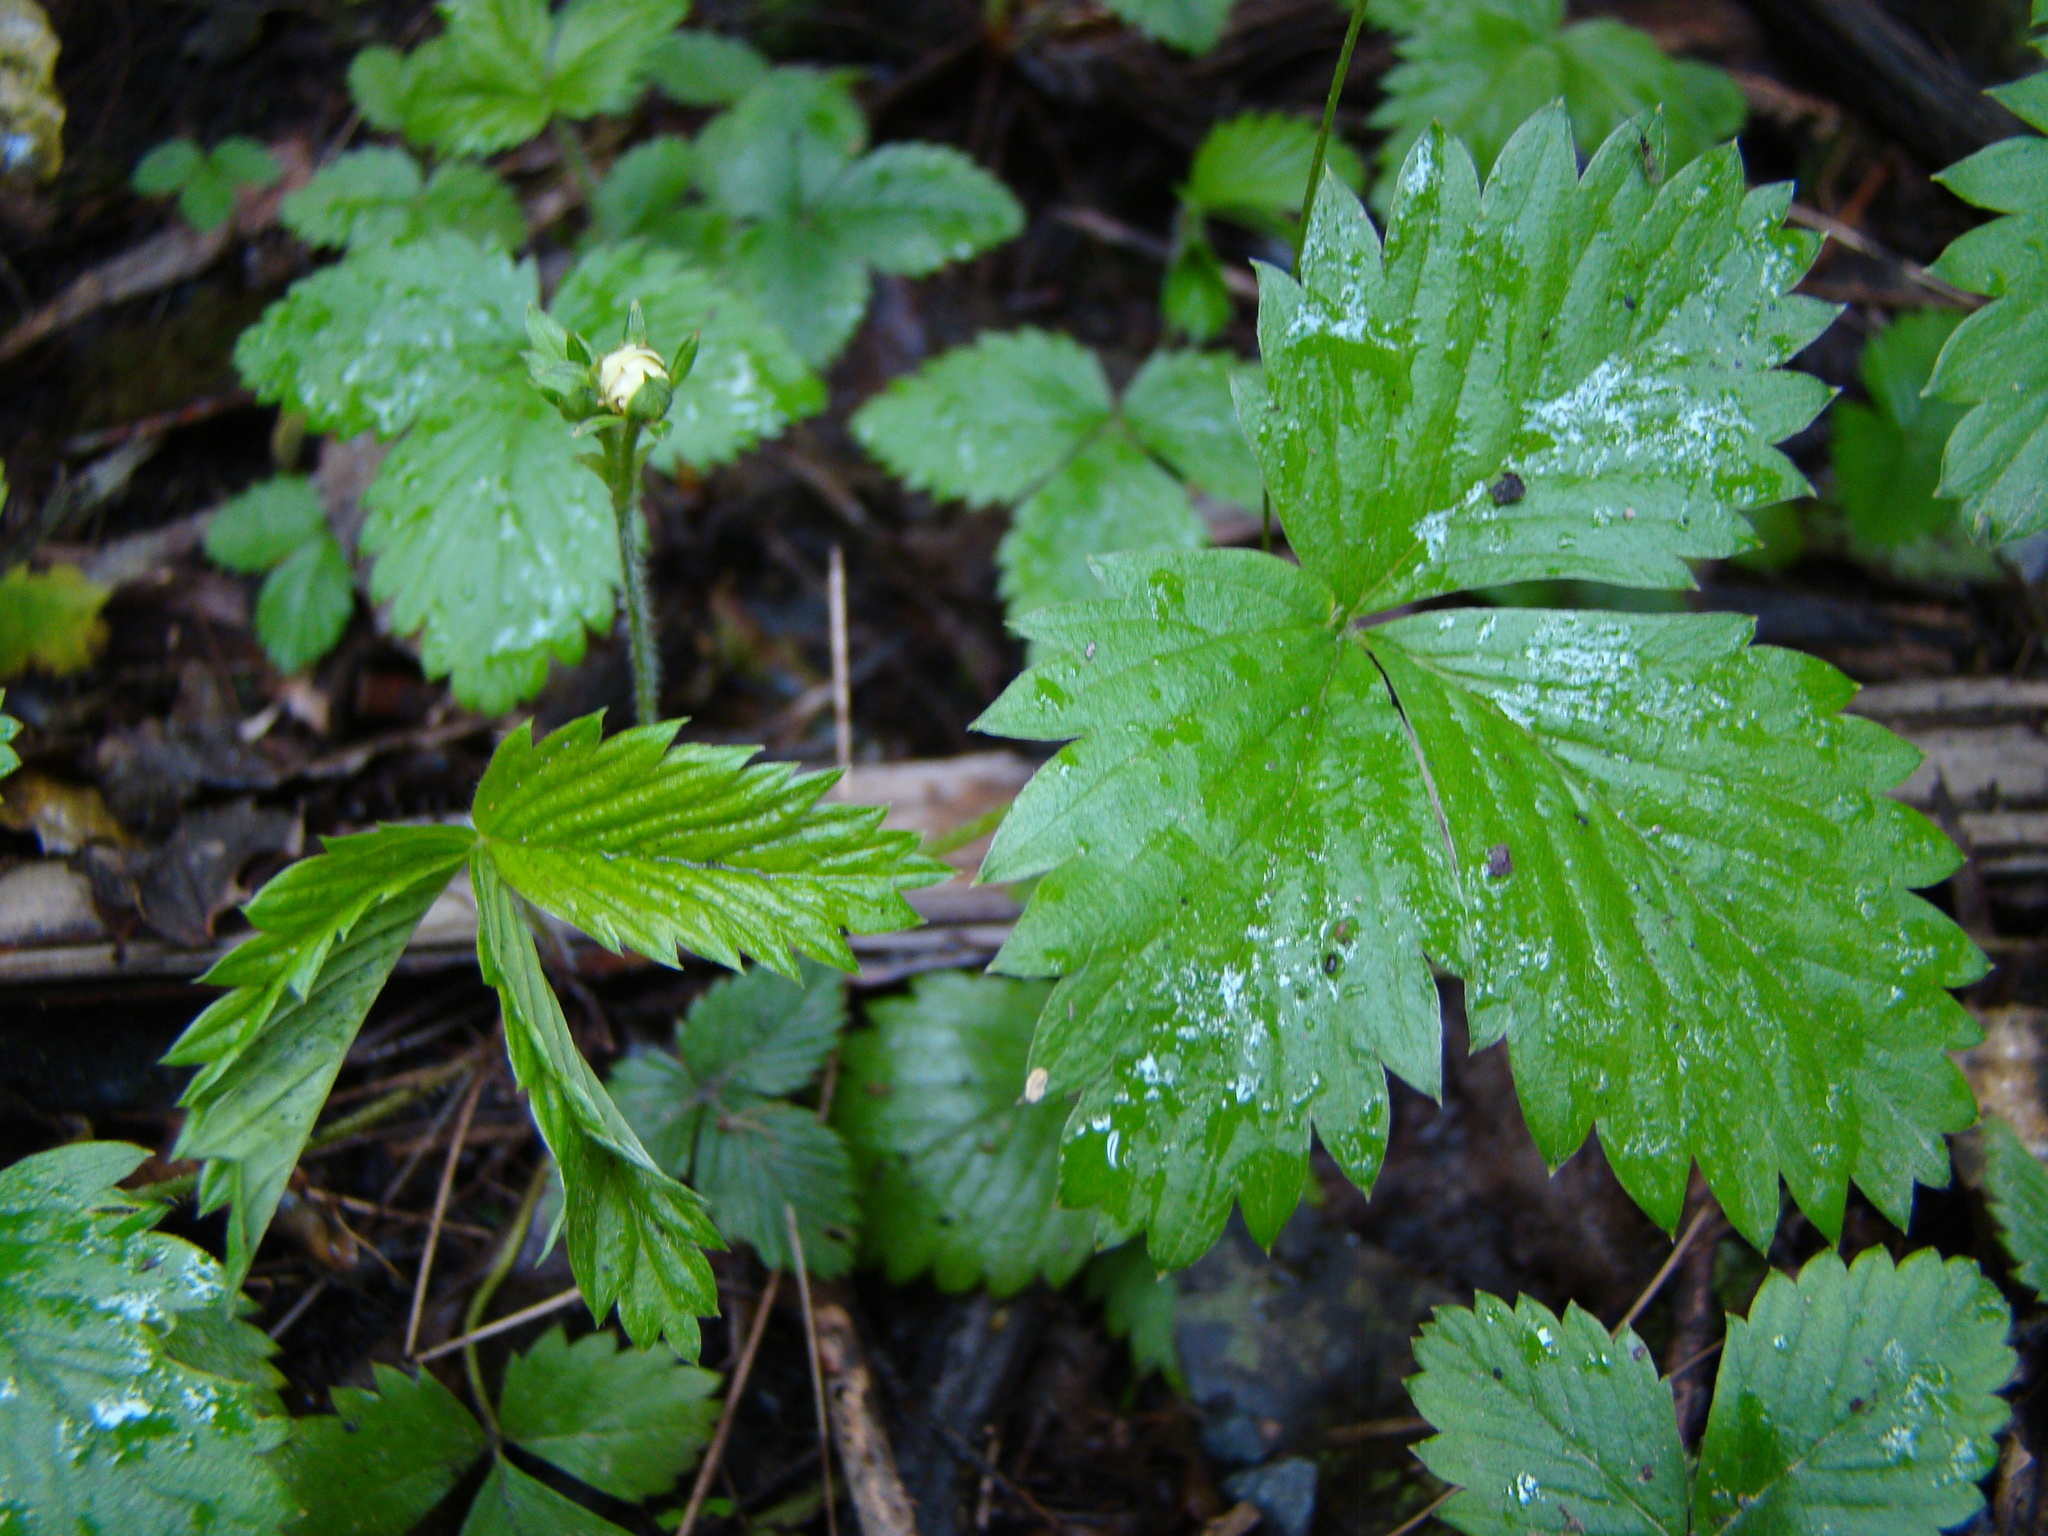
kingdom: Plantae
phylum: Tracheophyta
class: Magnoliopsida
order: Rosales
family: Rosaceae
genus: Fragaria
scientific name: Fragaria vesca
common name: Wild strawberry
